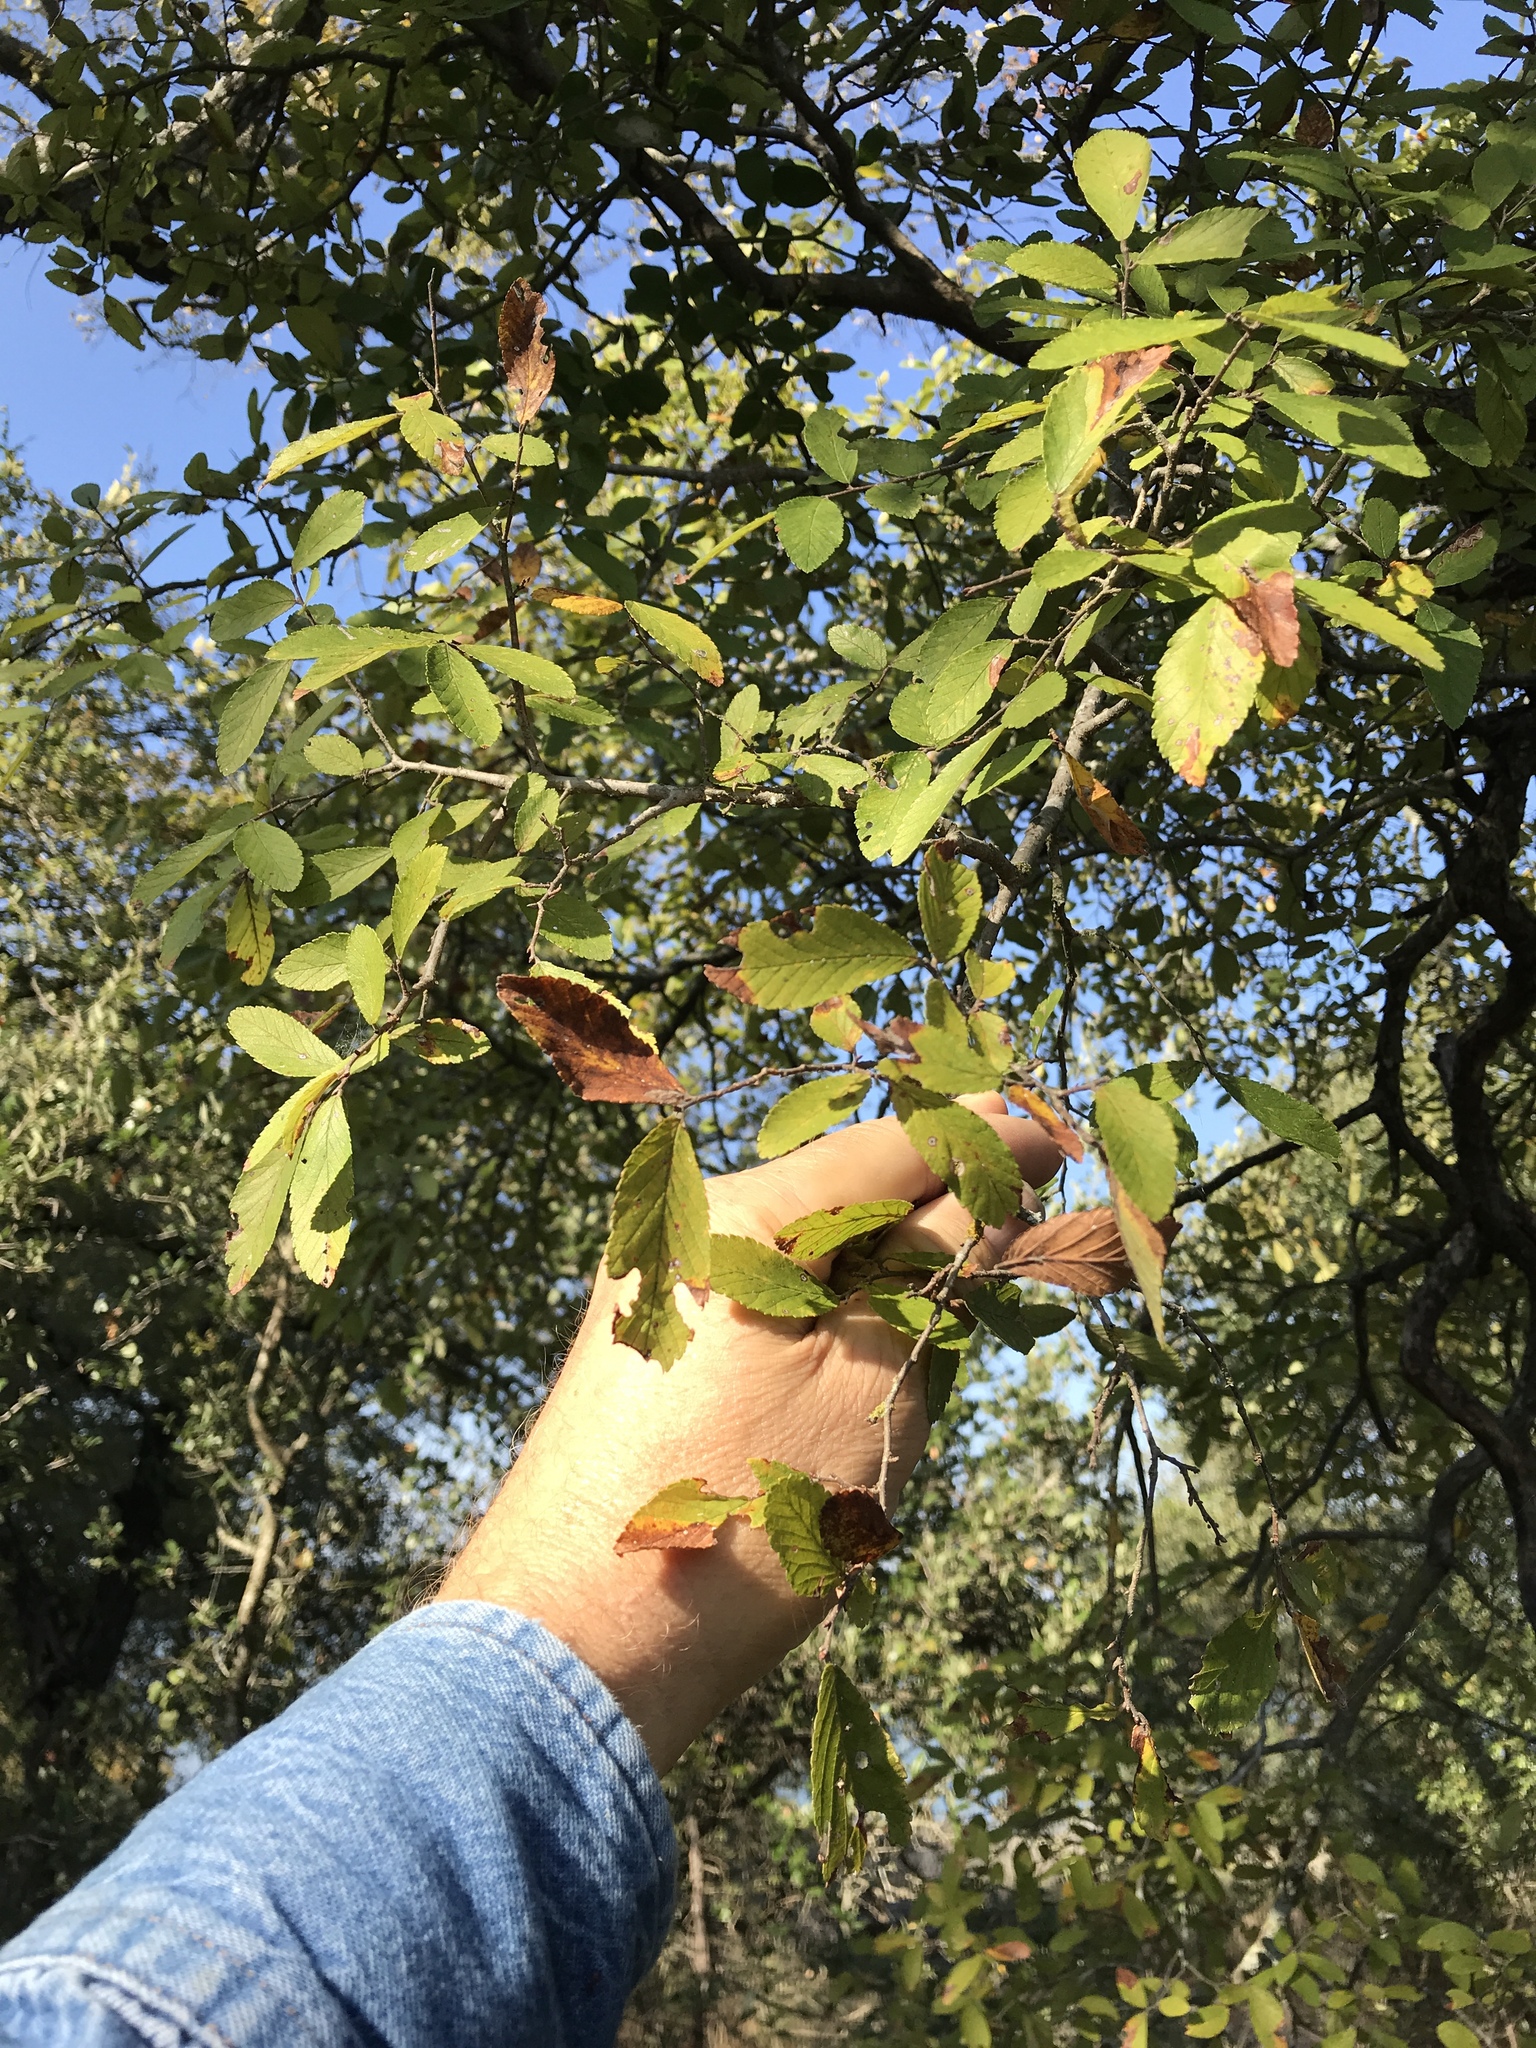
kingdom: Plantae
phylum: Tracheophyta
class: Magnoliopsida
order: Rosales
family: Ulmaceae
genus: Ulmus
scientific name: Ulmus crassifolia
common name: Basket elm
